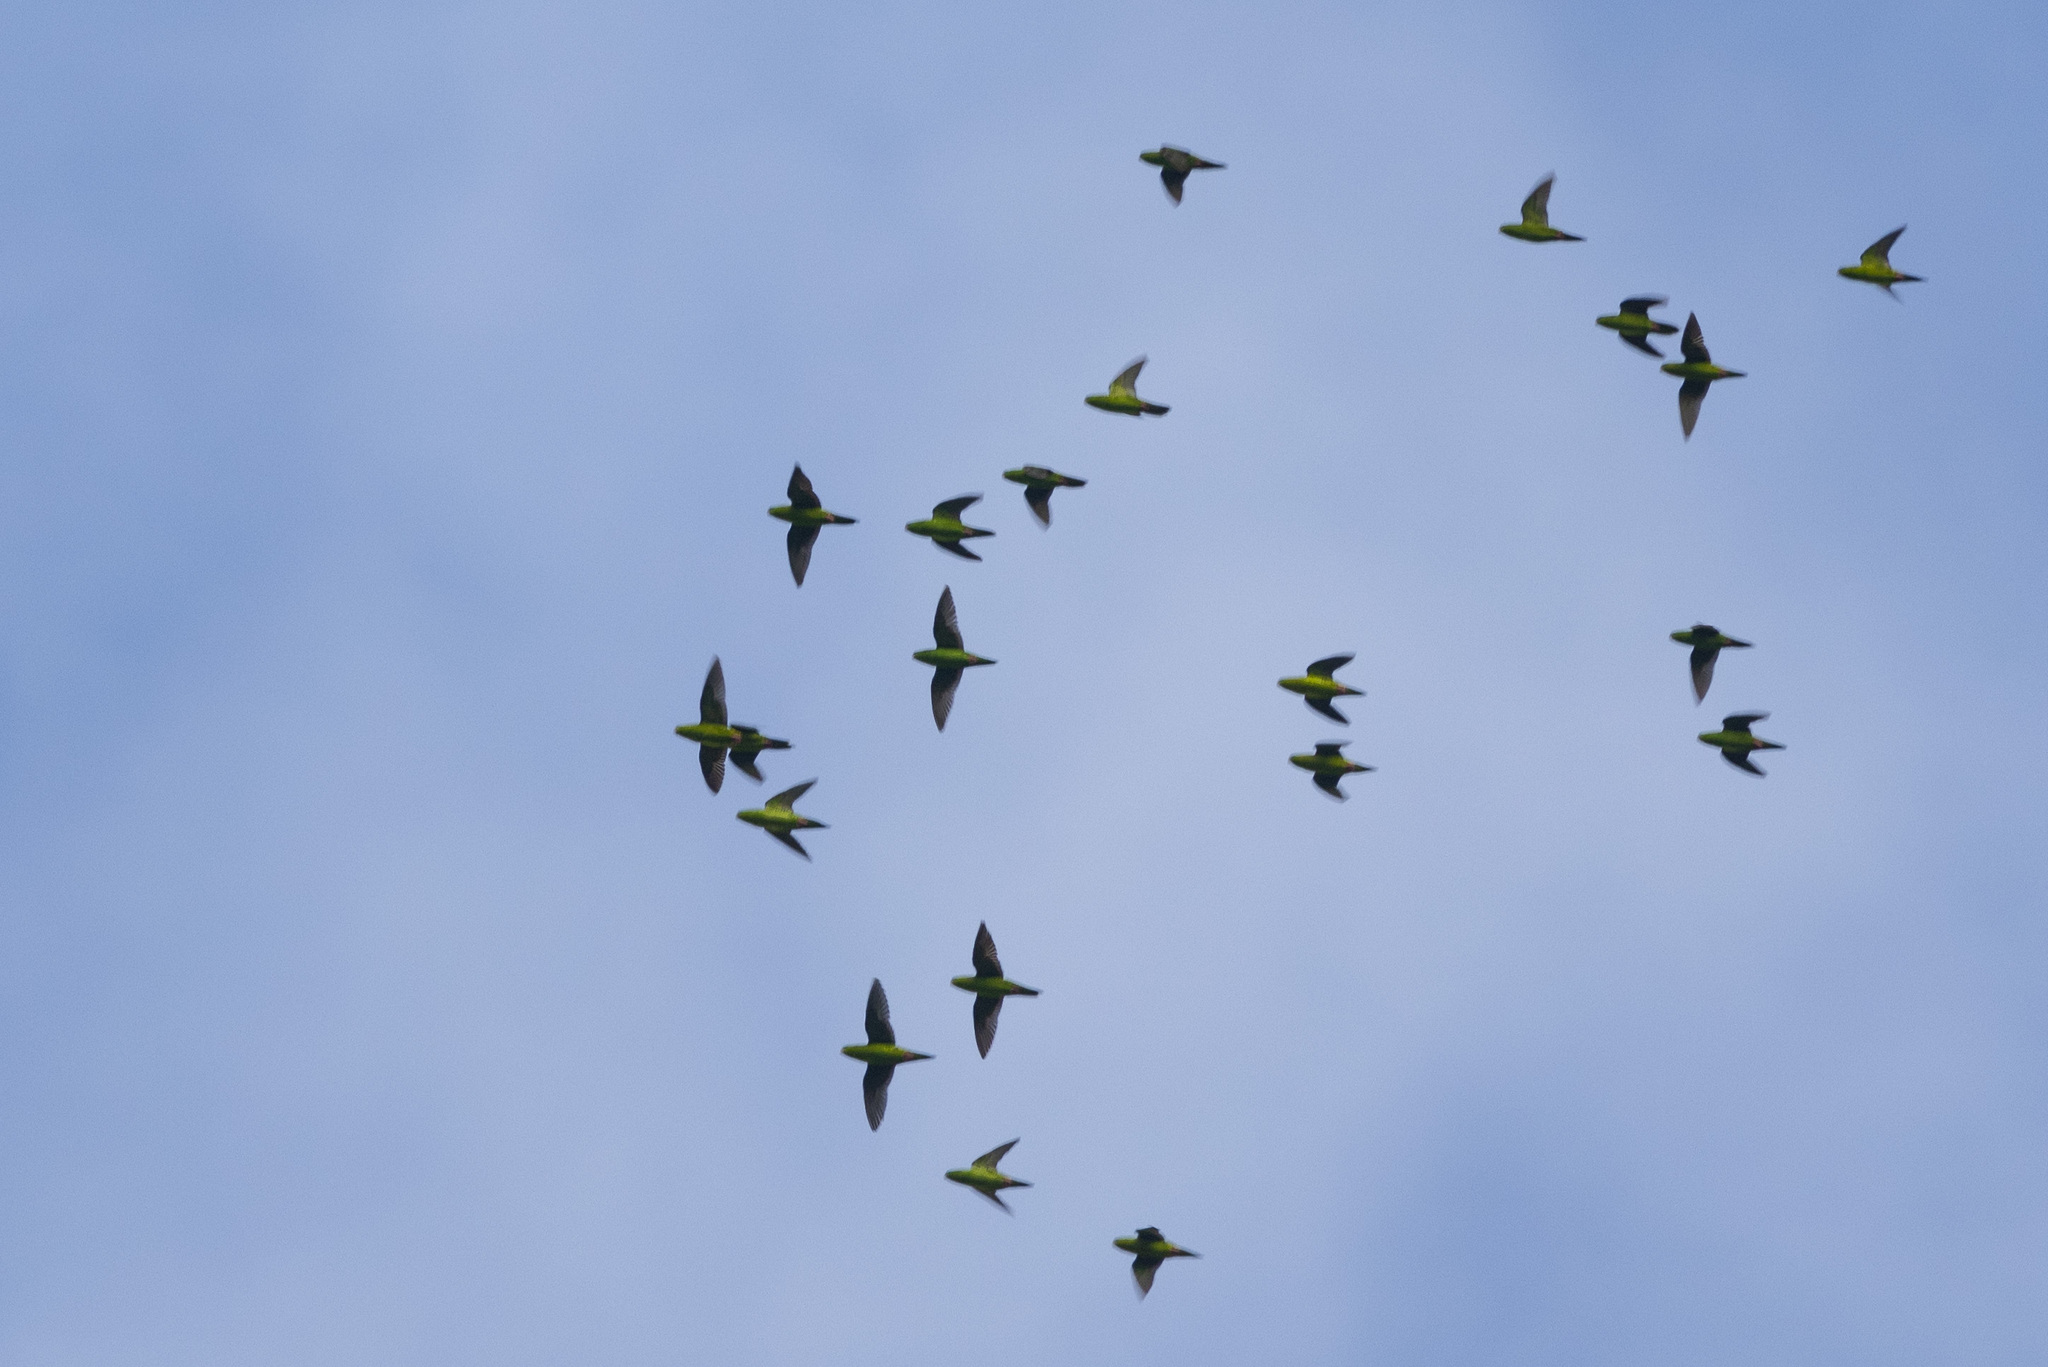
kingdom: Animalia
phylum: Chordata
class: Aves
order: Psittaciformes
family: Psittacidae
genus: Bolborhynchus
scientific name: Bolborhynchus lineola
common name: Barred parakeet
